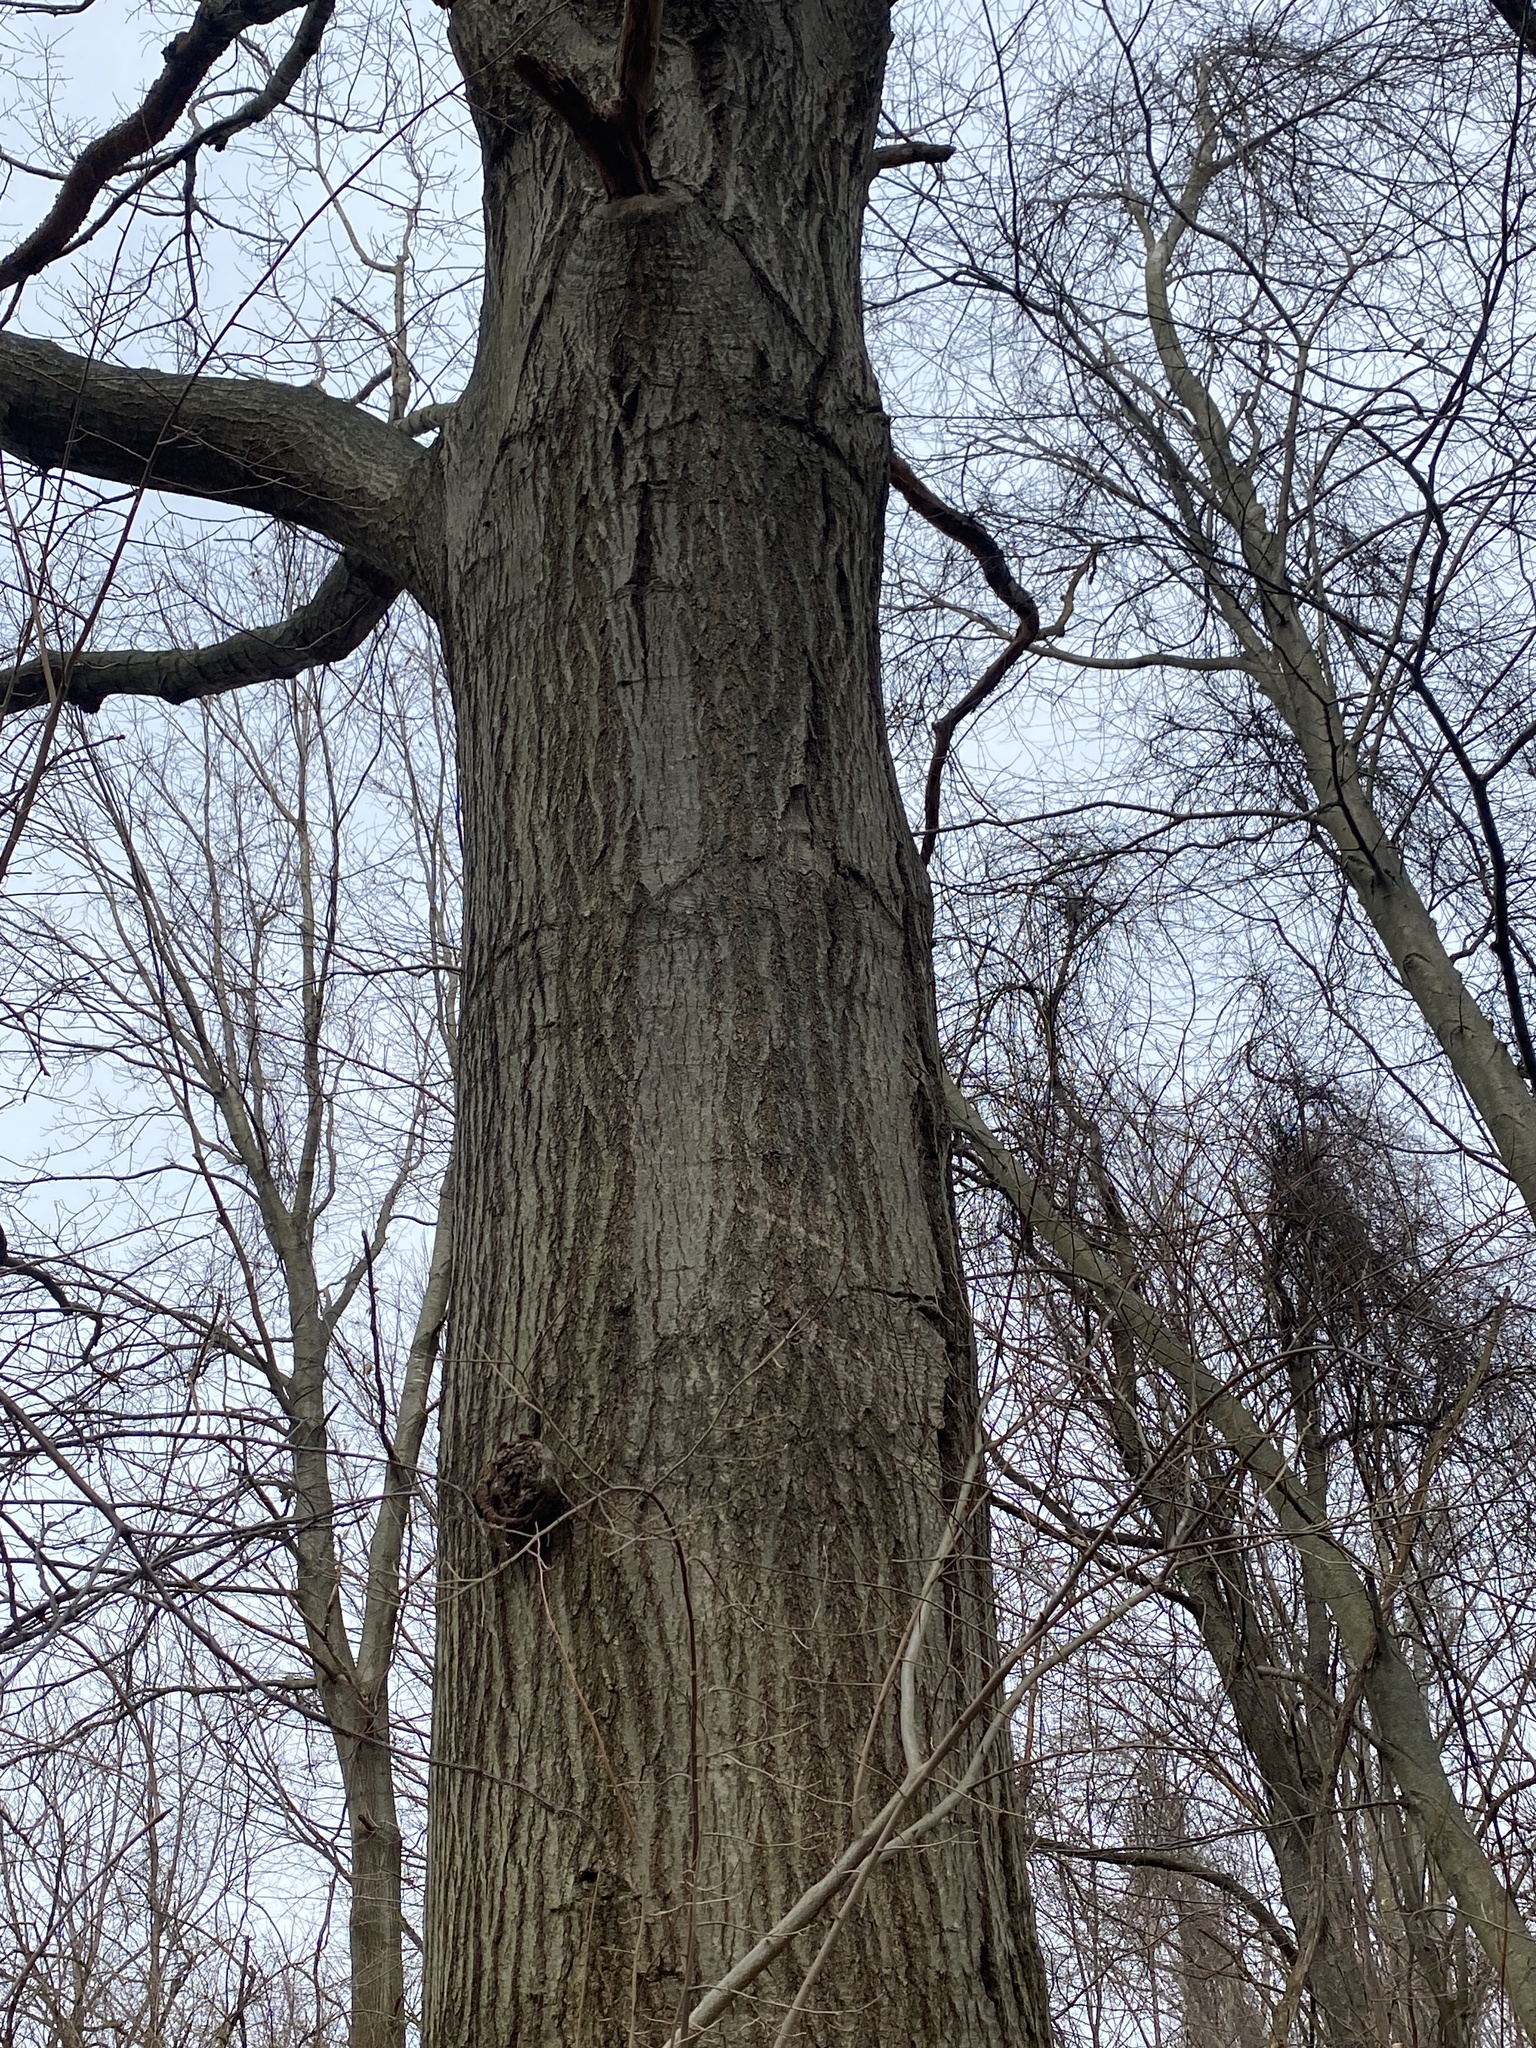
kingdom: Plantae
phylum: Tracheophyta
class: Magnoliopsida
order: Fagales
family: Fagaceae
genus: Quercus
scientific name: Quercus rubra
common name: Red oak
